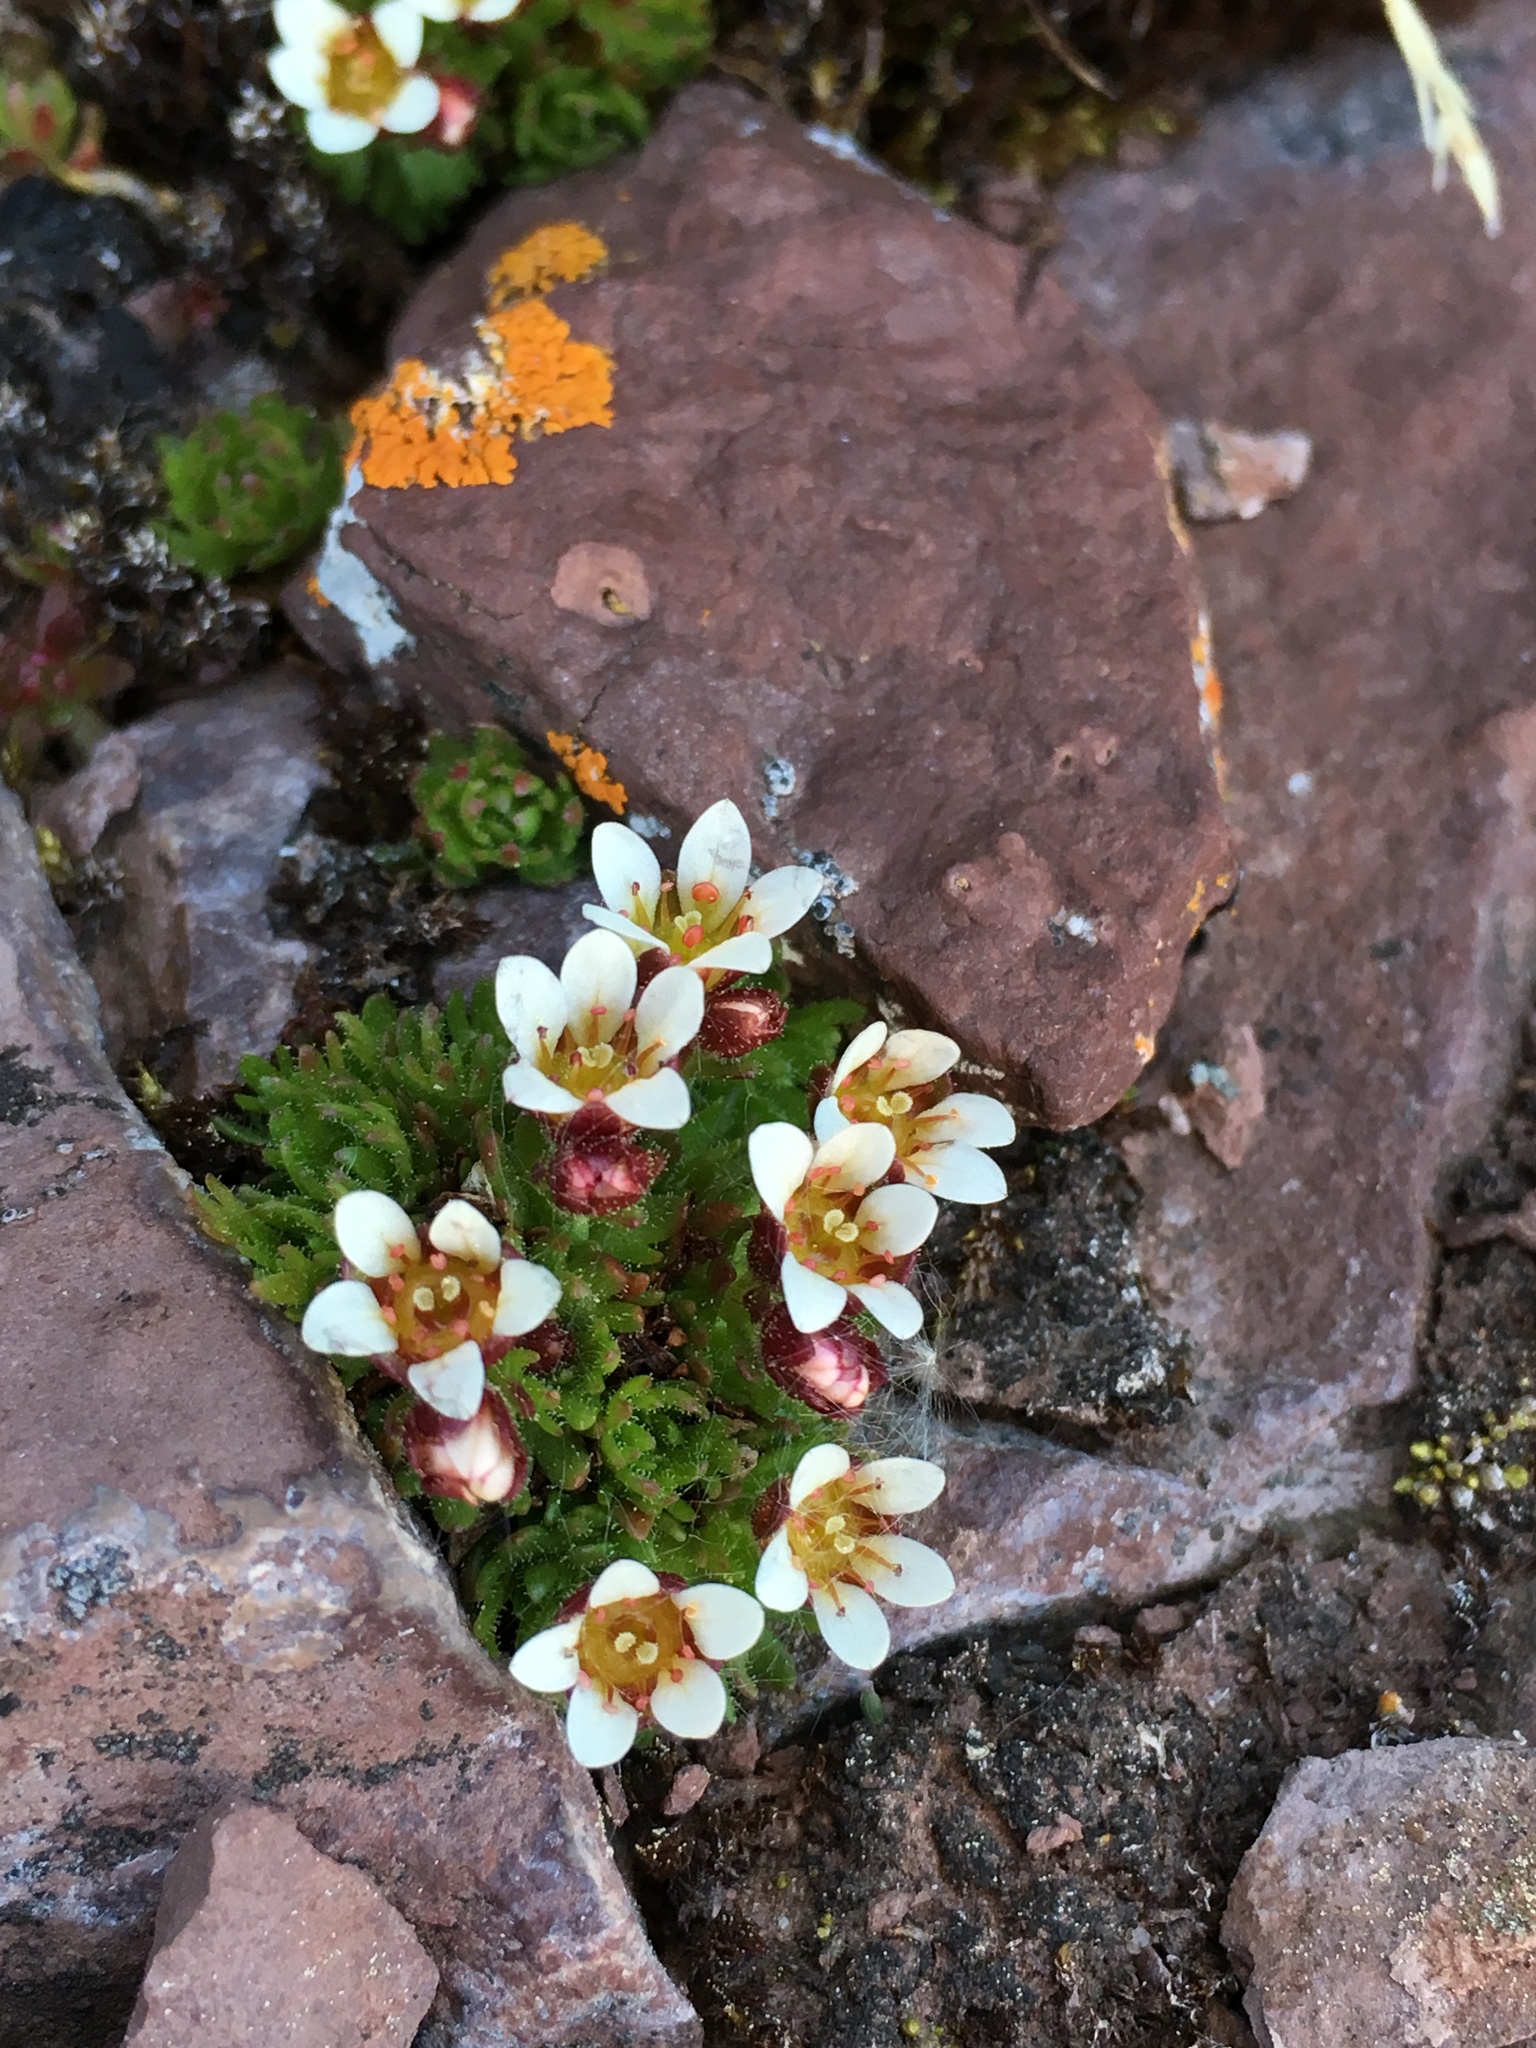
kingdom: Plantae
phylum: Tracheophyta
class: Magnoliopsida
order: Saxifragales
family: Saxifragaceae
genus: Saxifraga
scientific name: Saxifraga cespitosa
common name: Tufted saxifrage
